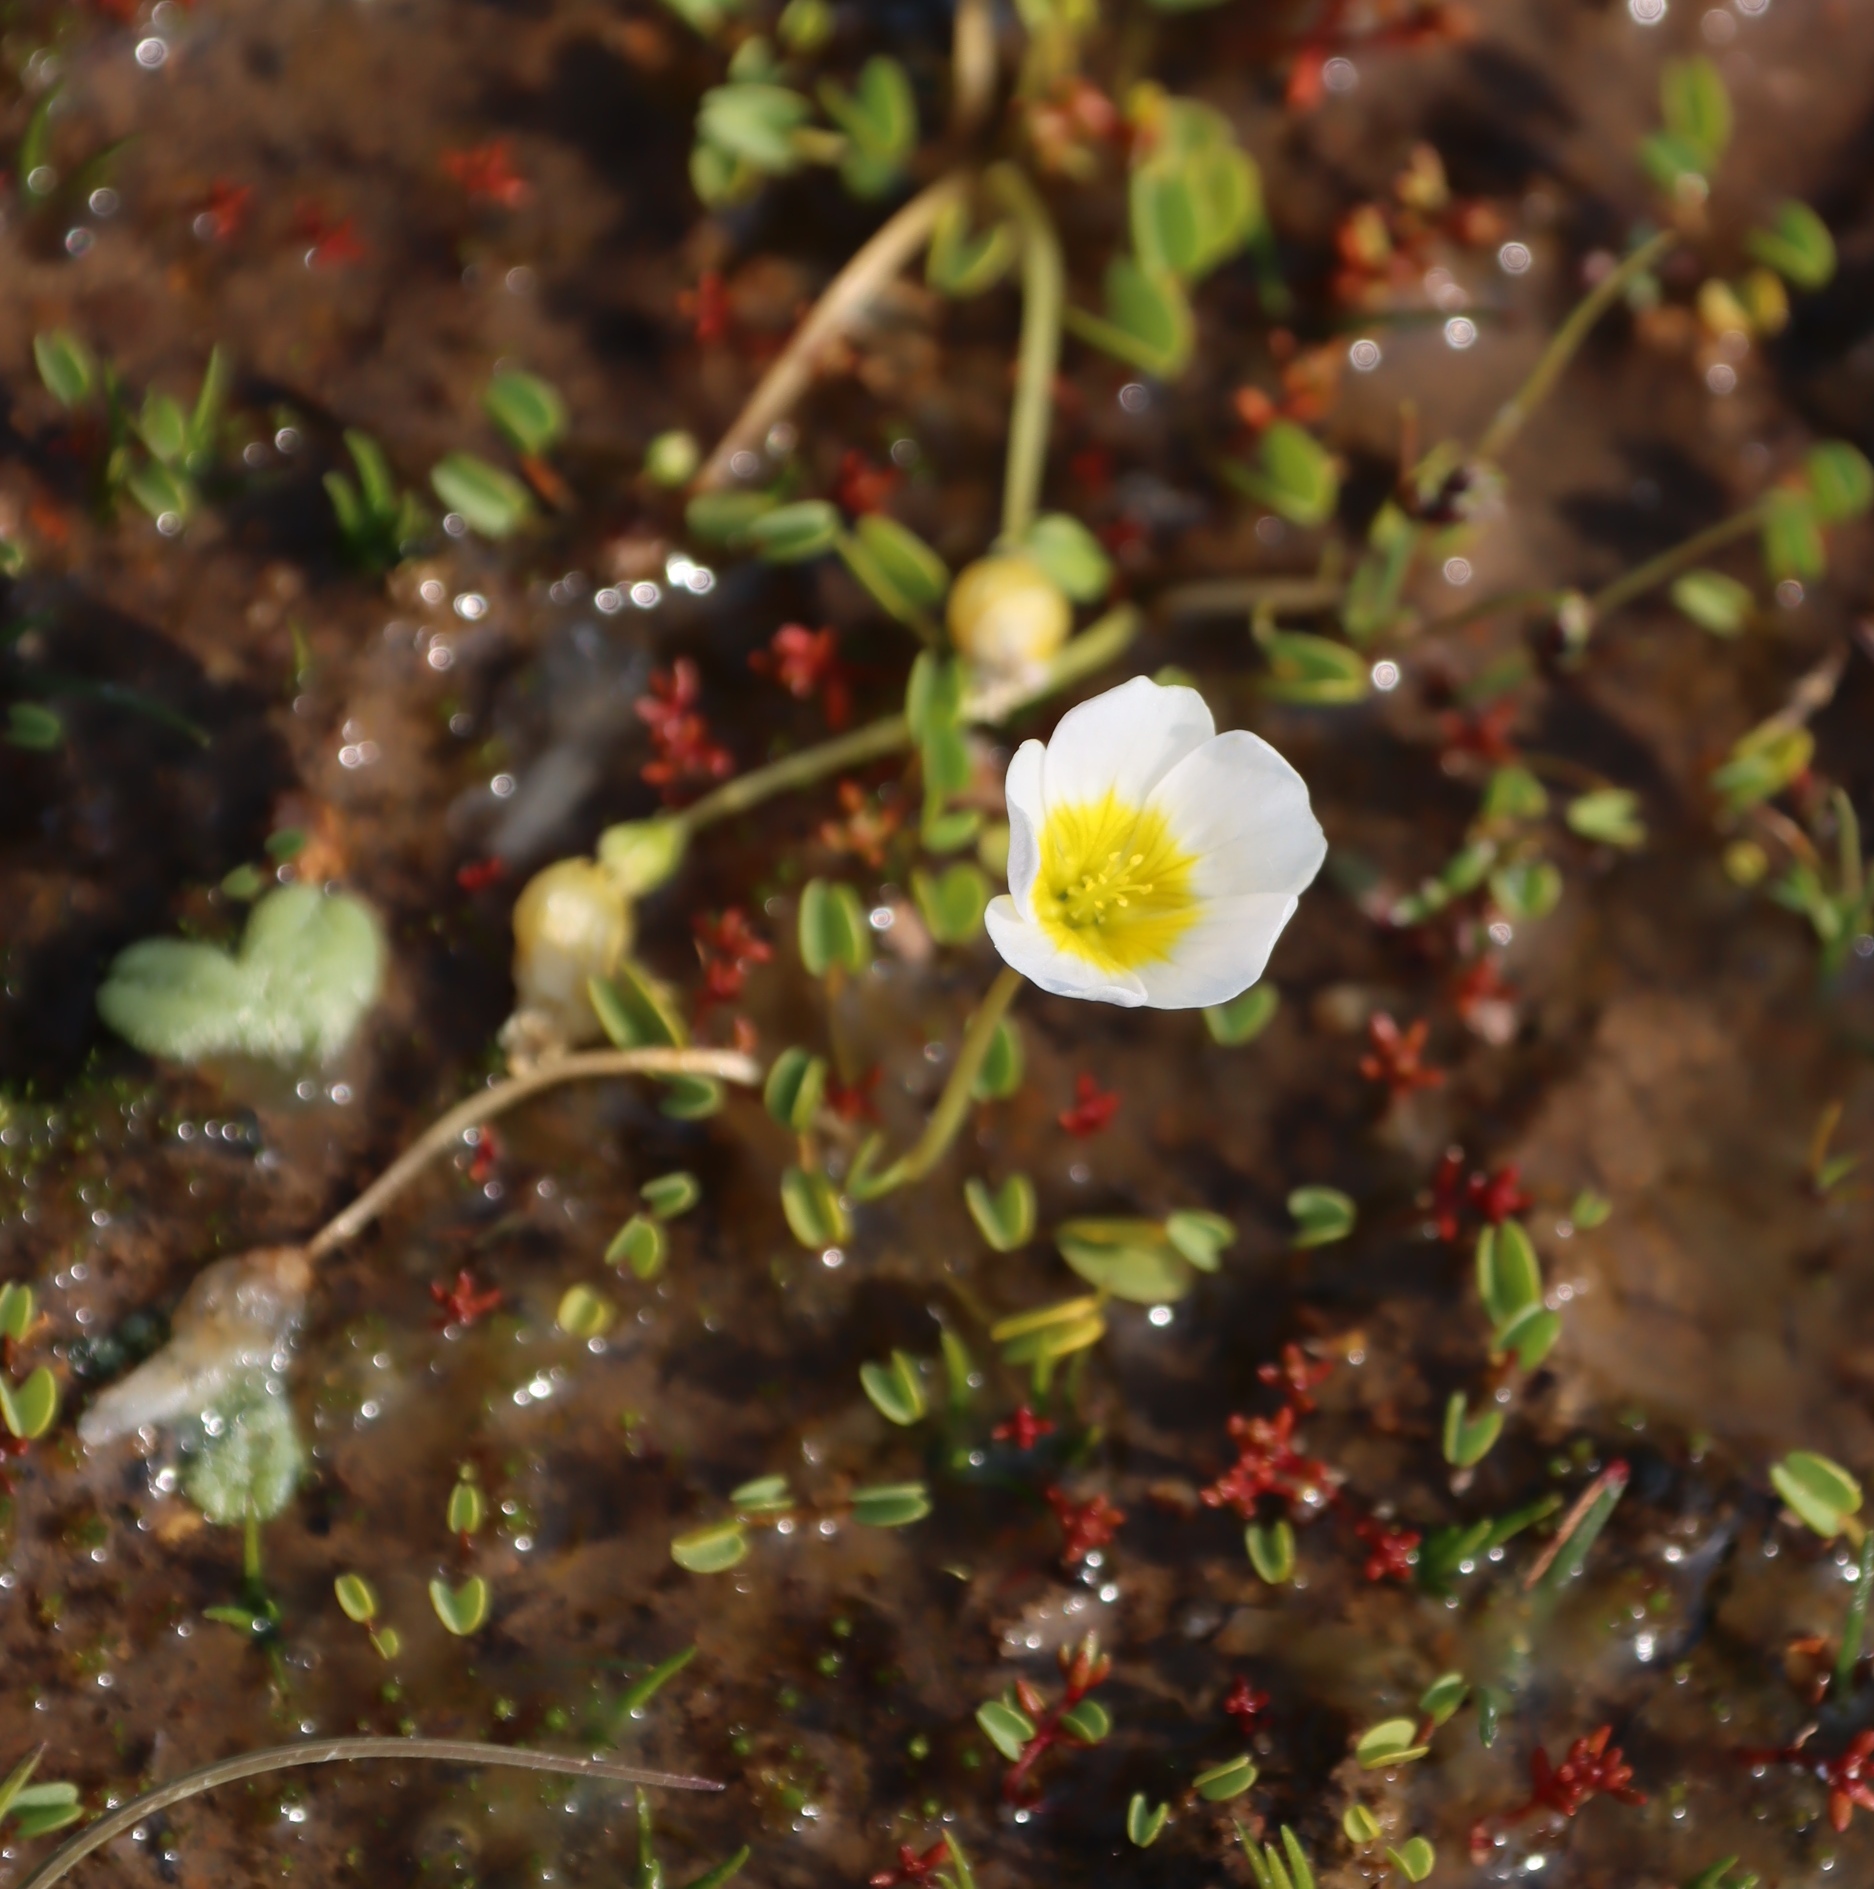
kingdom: Plantae
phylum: Tracheophyta
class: Magnoliopsida
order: Oxalidales
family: Oxalidaceae
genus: Oxalis
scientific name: Oxalis dregei
